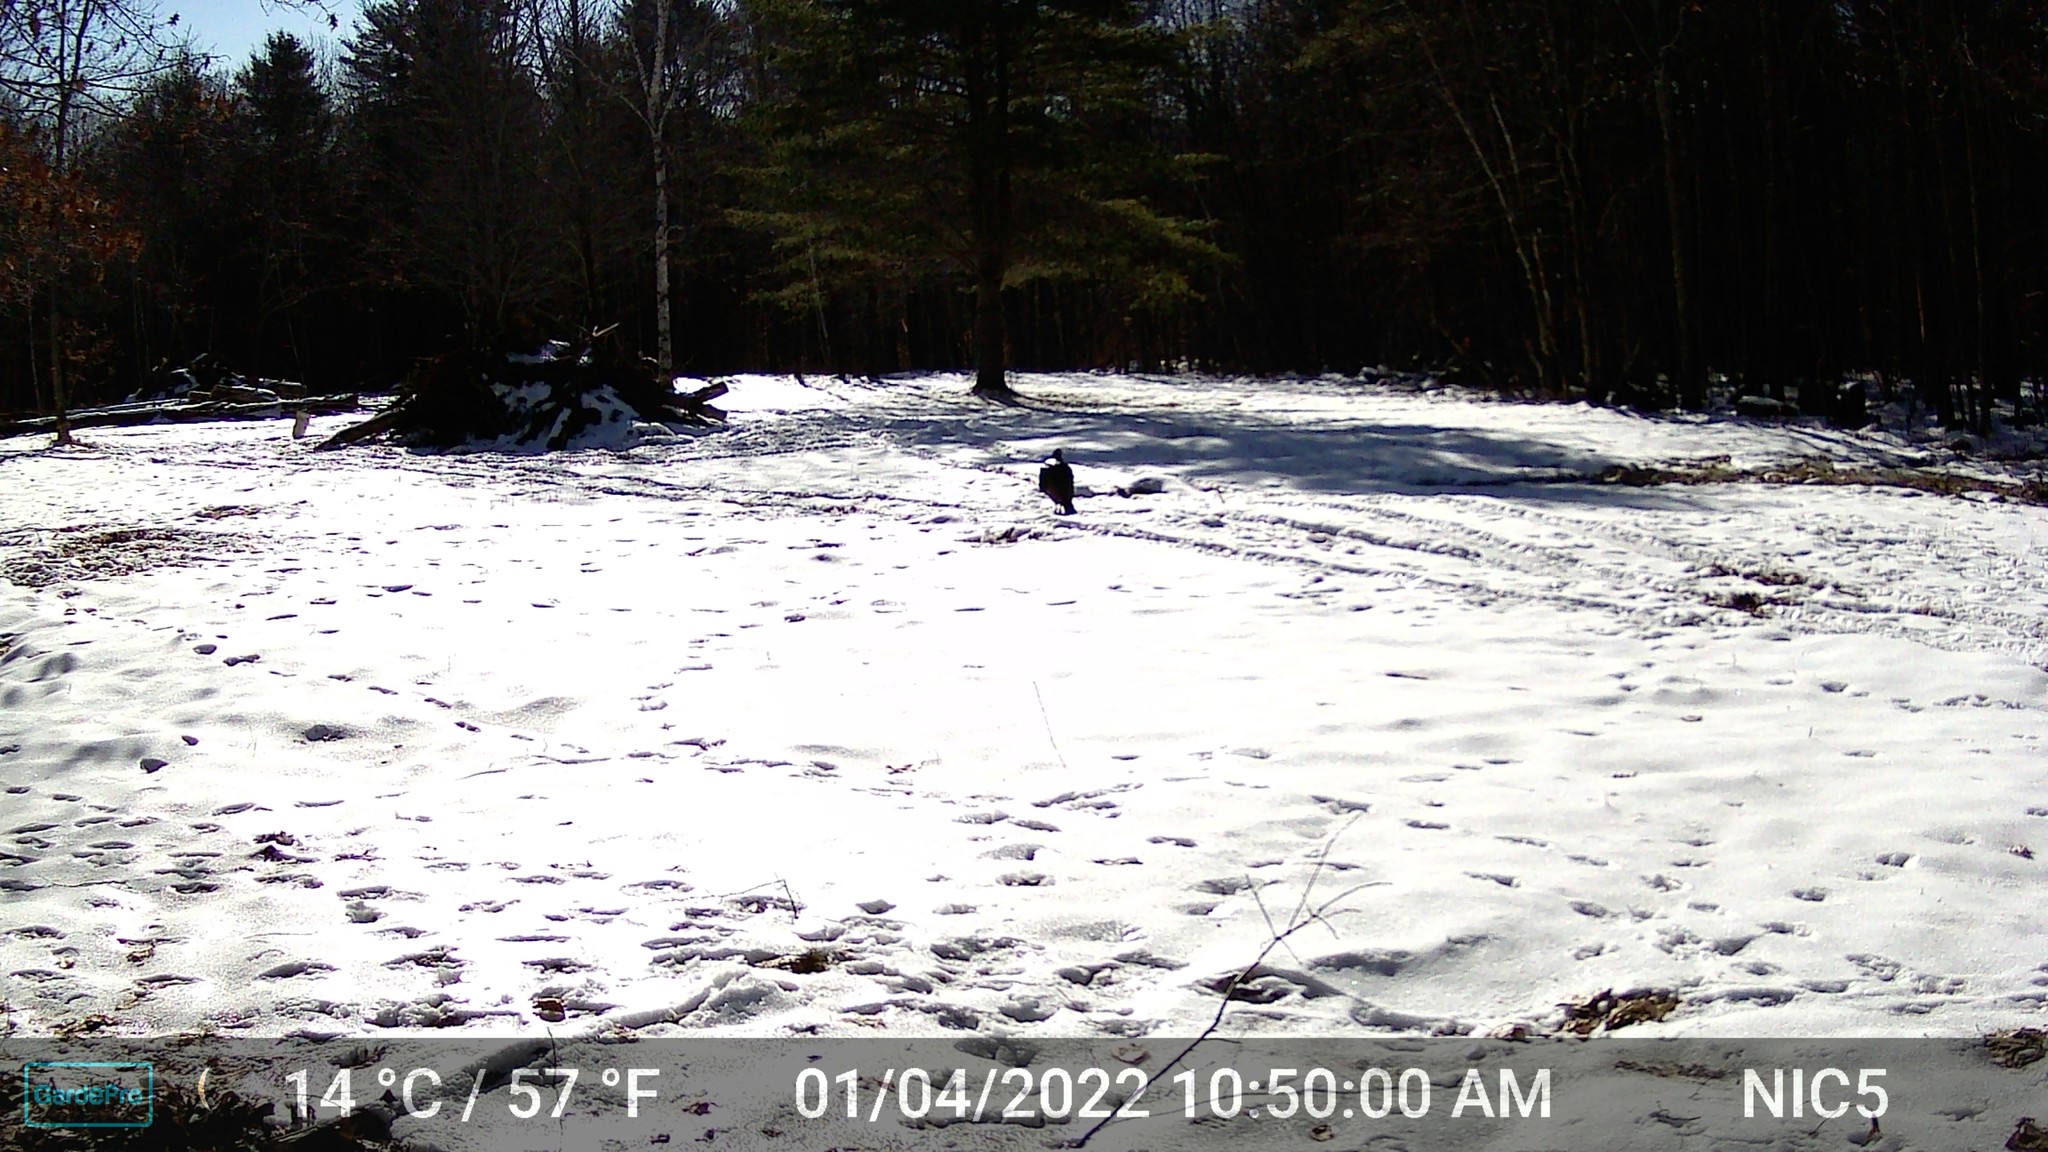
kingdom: Animalia
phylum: Chordata
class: Aves
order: Galliformes
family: Phasianidae
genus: Meleagris
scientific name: Meleagris gallopavo
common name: Wild turkey
